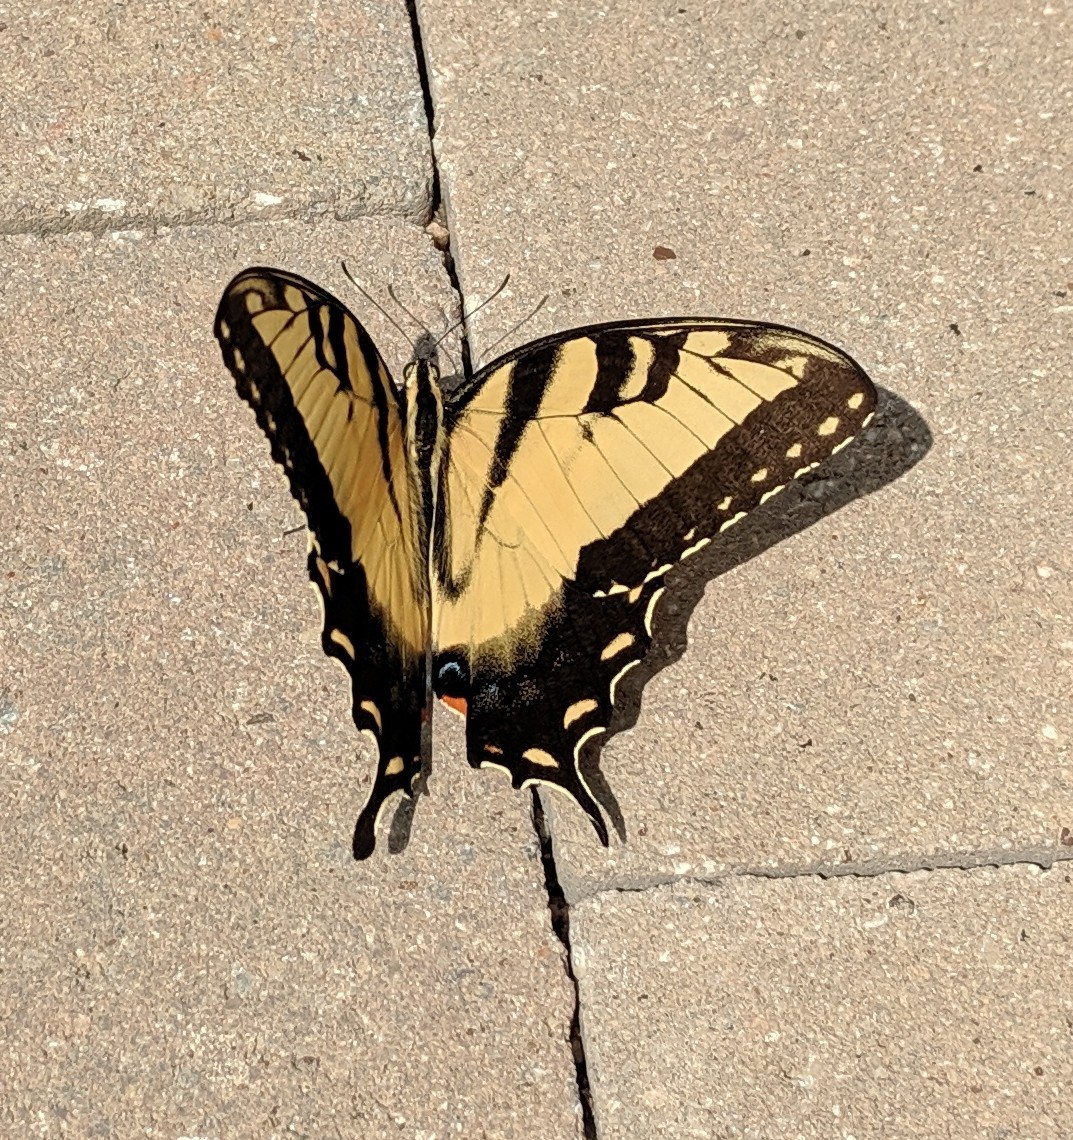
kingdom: Animalia
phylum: Arthropoda
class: Insecta
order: Lepidoptera
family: Papilionidae
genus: Papilio
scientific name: Papilio glaucus
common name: Tiger swallowtail
